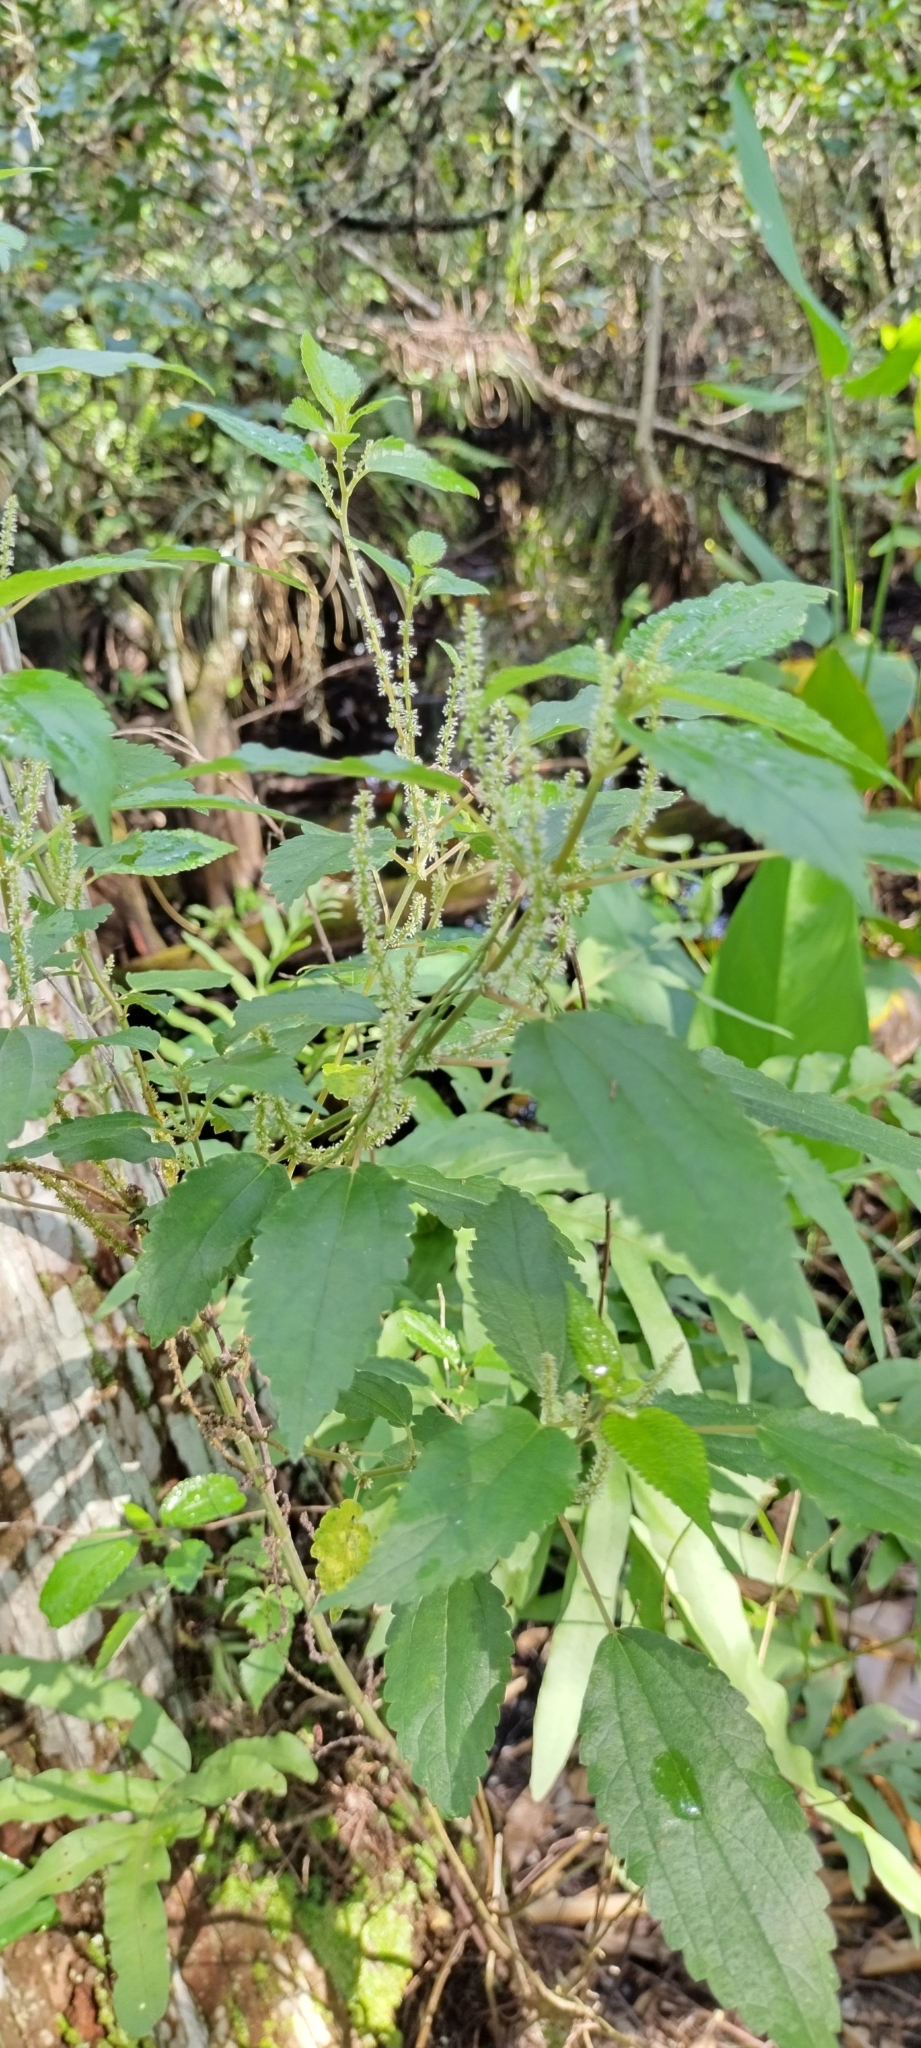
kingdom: Plantae
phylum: Tracheophyta
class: Magnoliopsida
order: Rosales
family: Urticaceae
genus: Boehmeria
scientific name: Boehmeria cylindrica
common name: Bog-hemp
